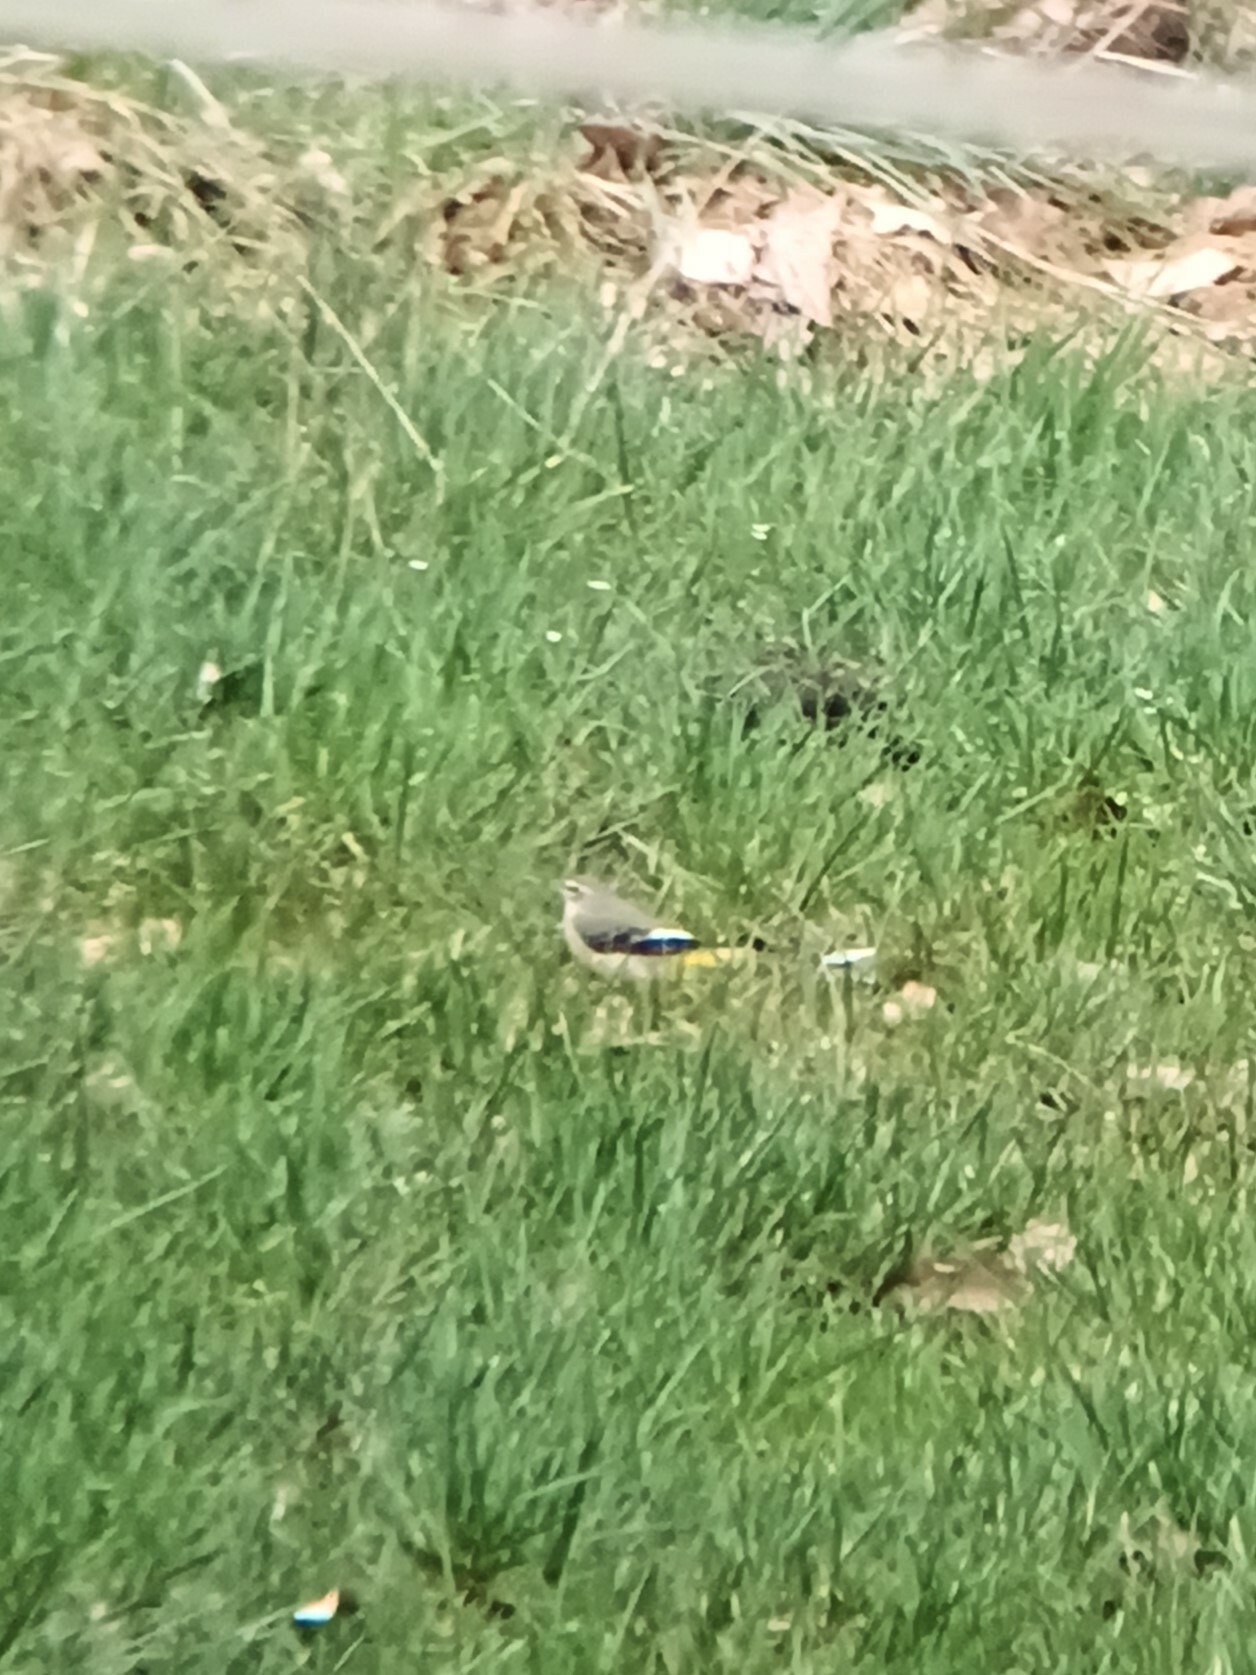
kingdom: Animalia
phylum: Chordata
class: Aves
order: Passeriformes
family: Motacillidae
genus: Motacilla
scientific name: Motacilla cinerea
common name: Grey wagtail
